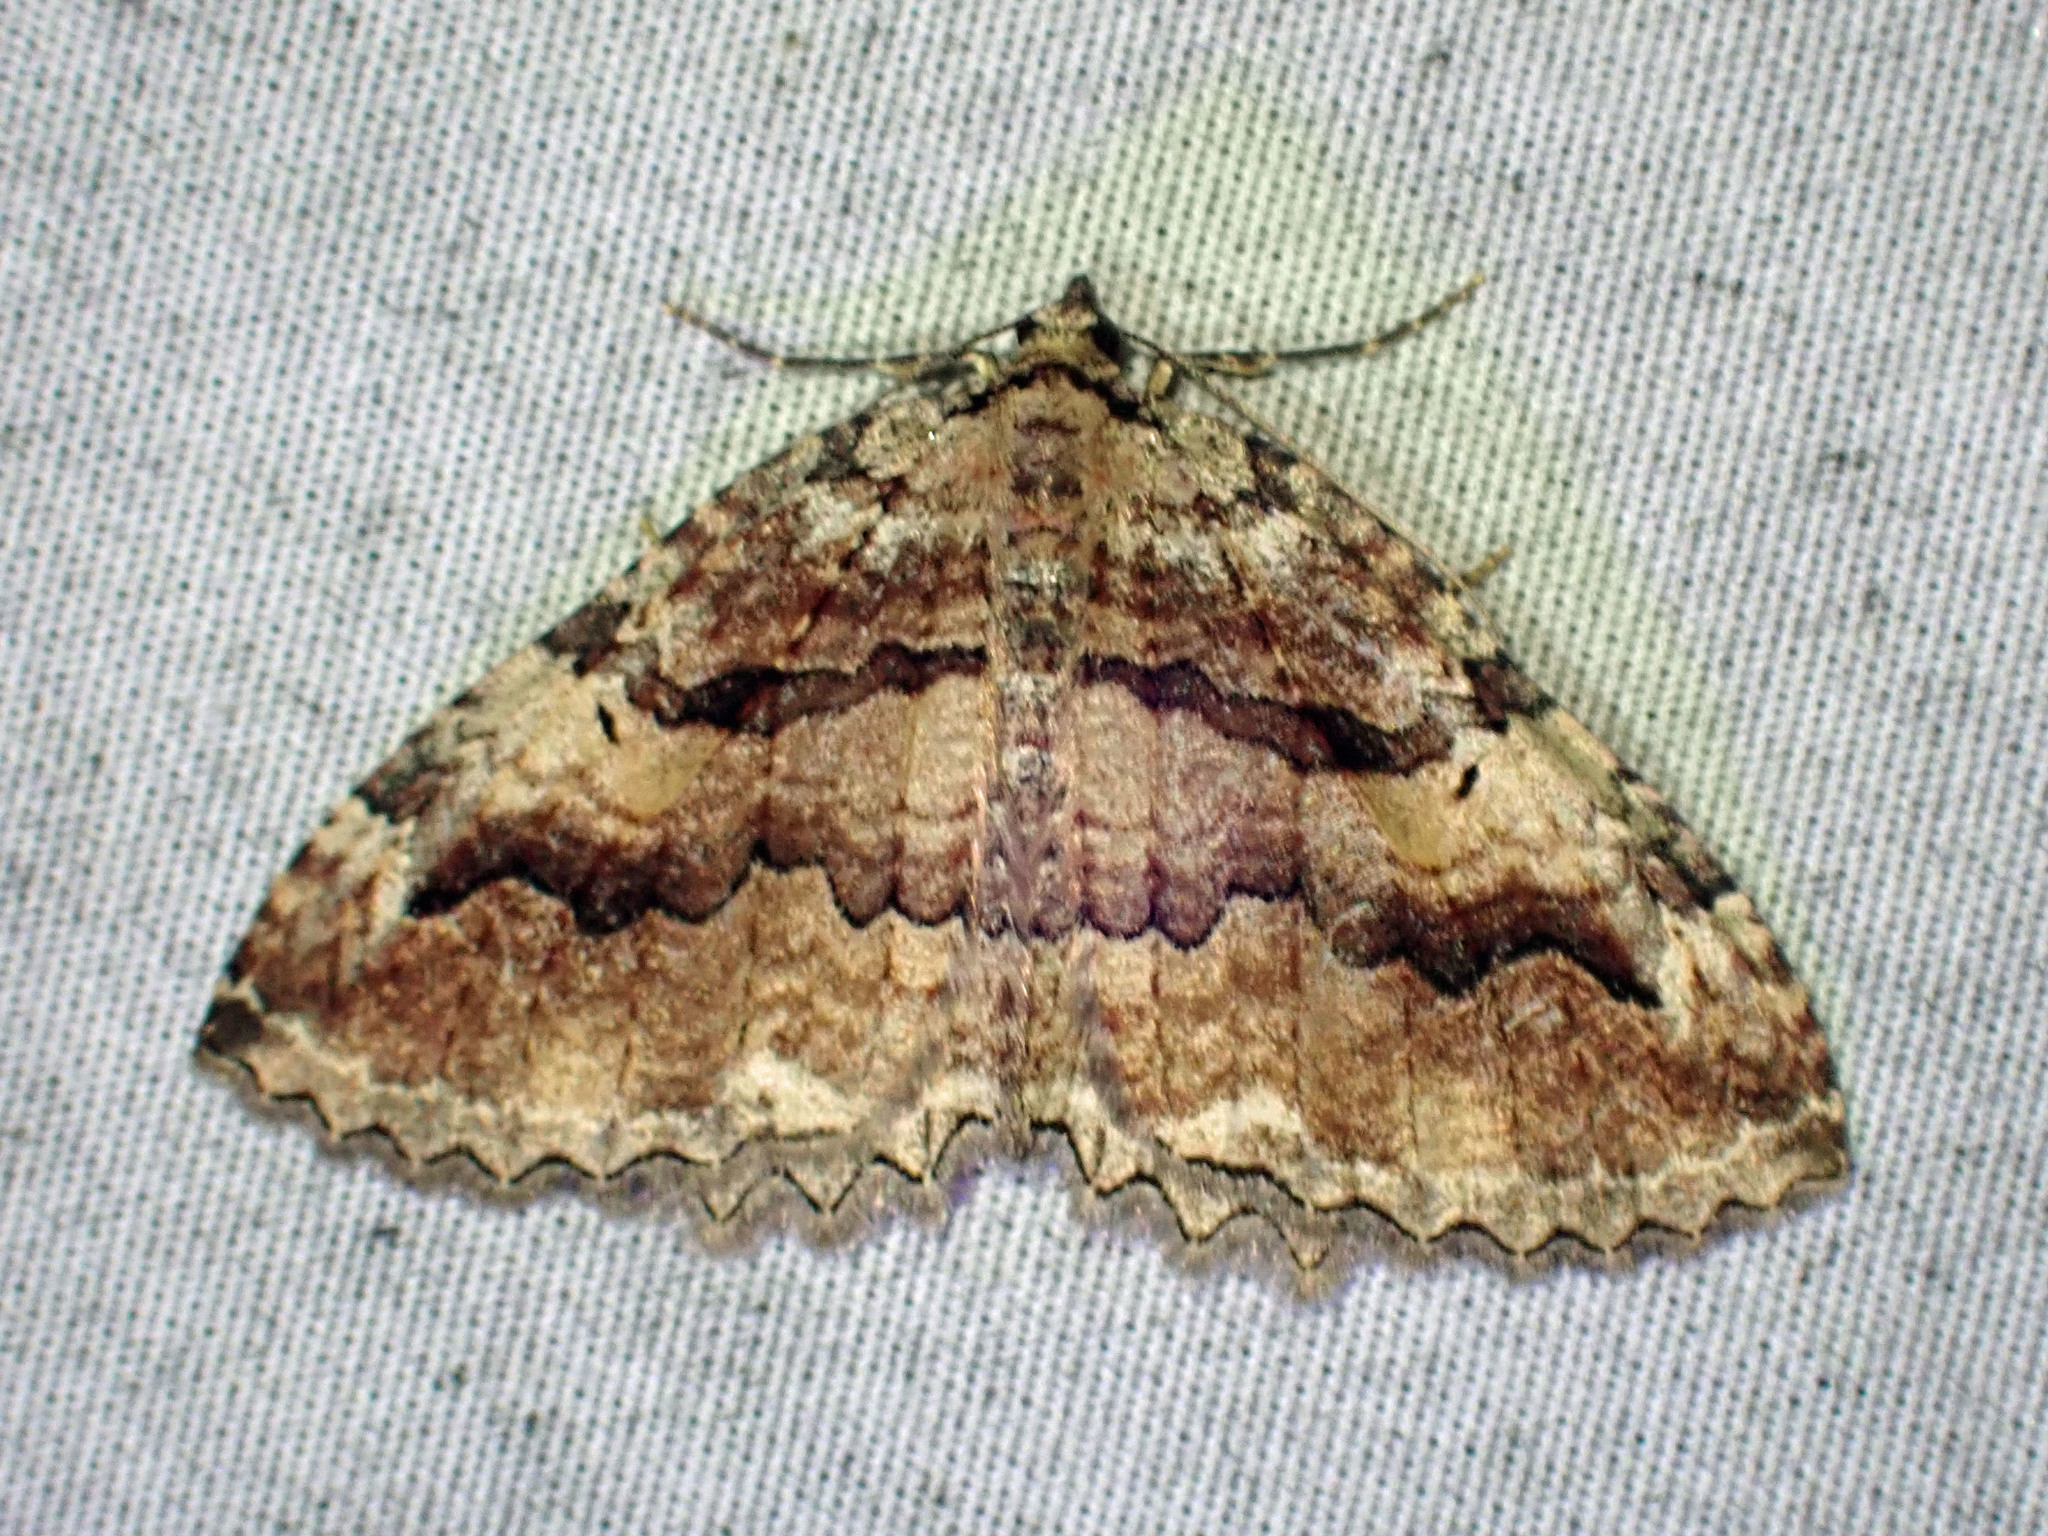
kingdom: Animalia
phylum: Arthropoda
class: Insecta
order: Lepidoptera
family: Geometridae
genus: Triphosa
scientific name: Triphosa haesitata
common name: Tissue moth
